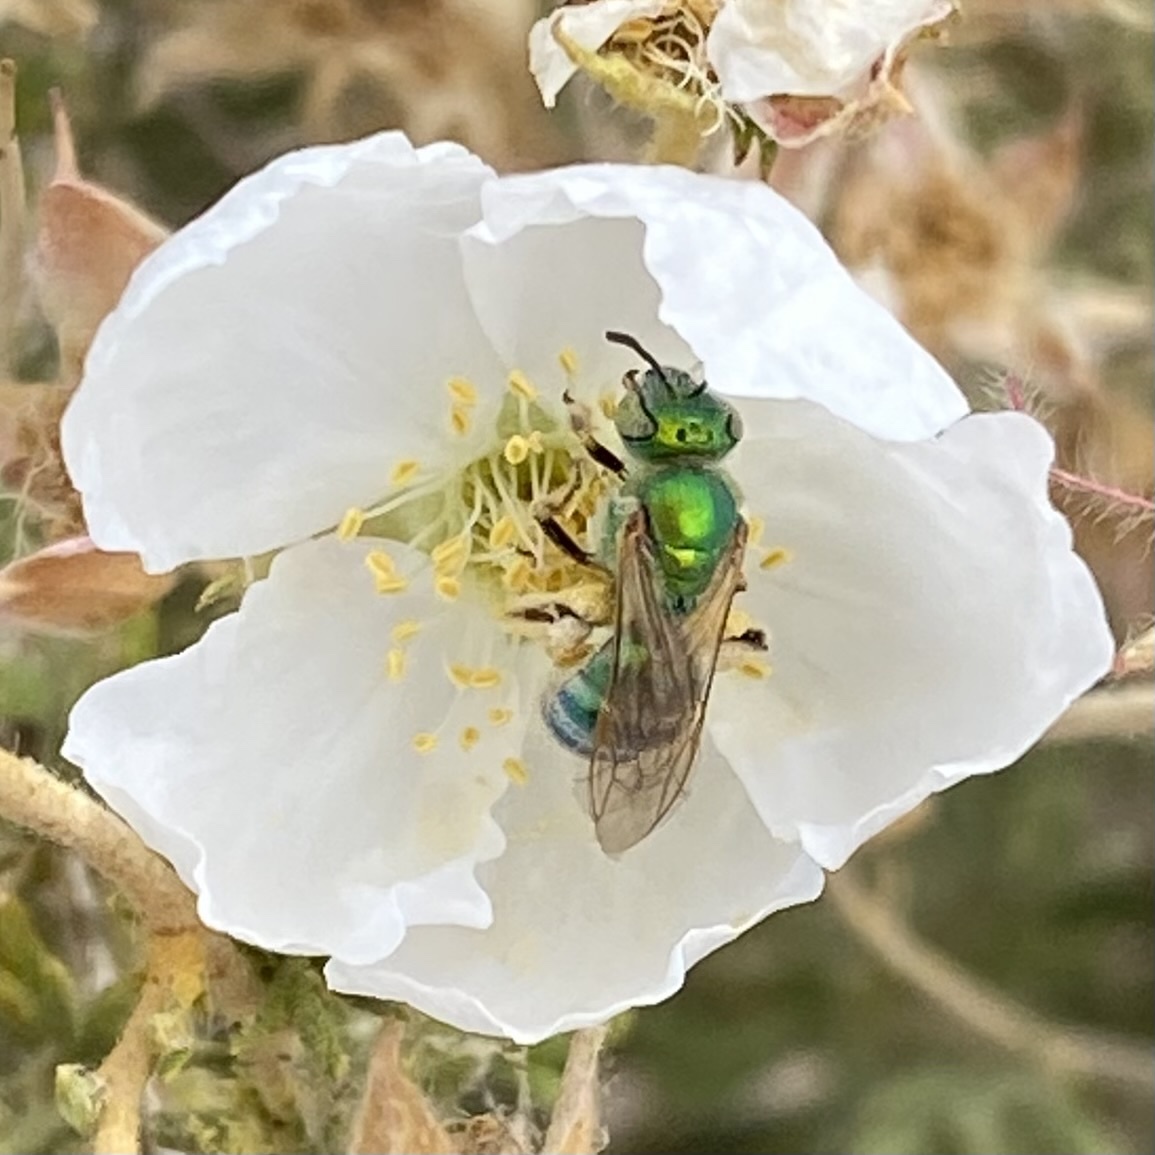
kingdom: Animalia
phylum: Arthropoda
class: Insecta
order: Hymenoptera
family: Halictidae
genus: Agapostemon
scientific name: Agapostemon
